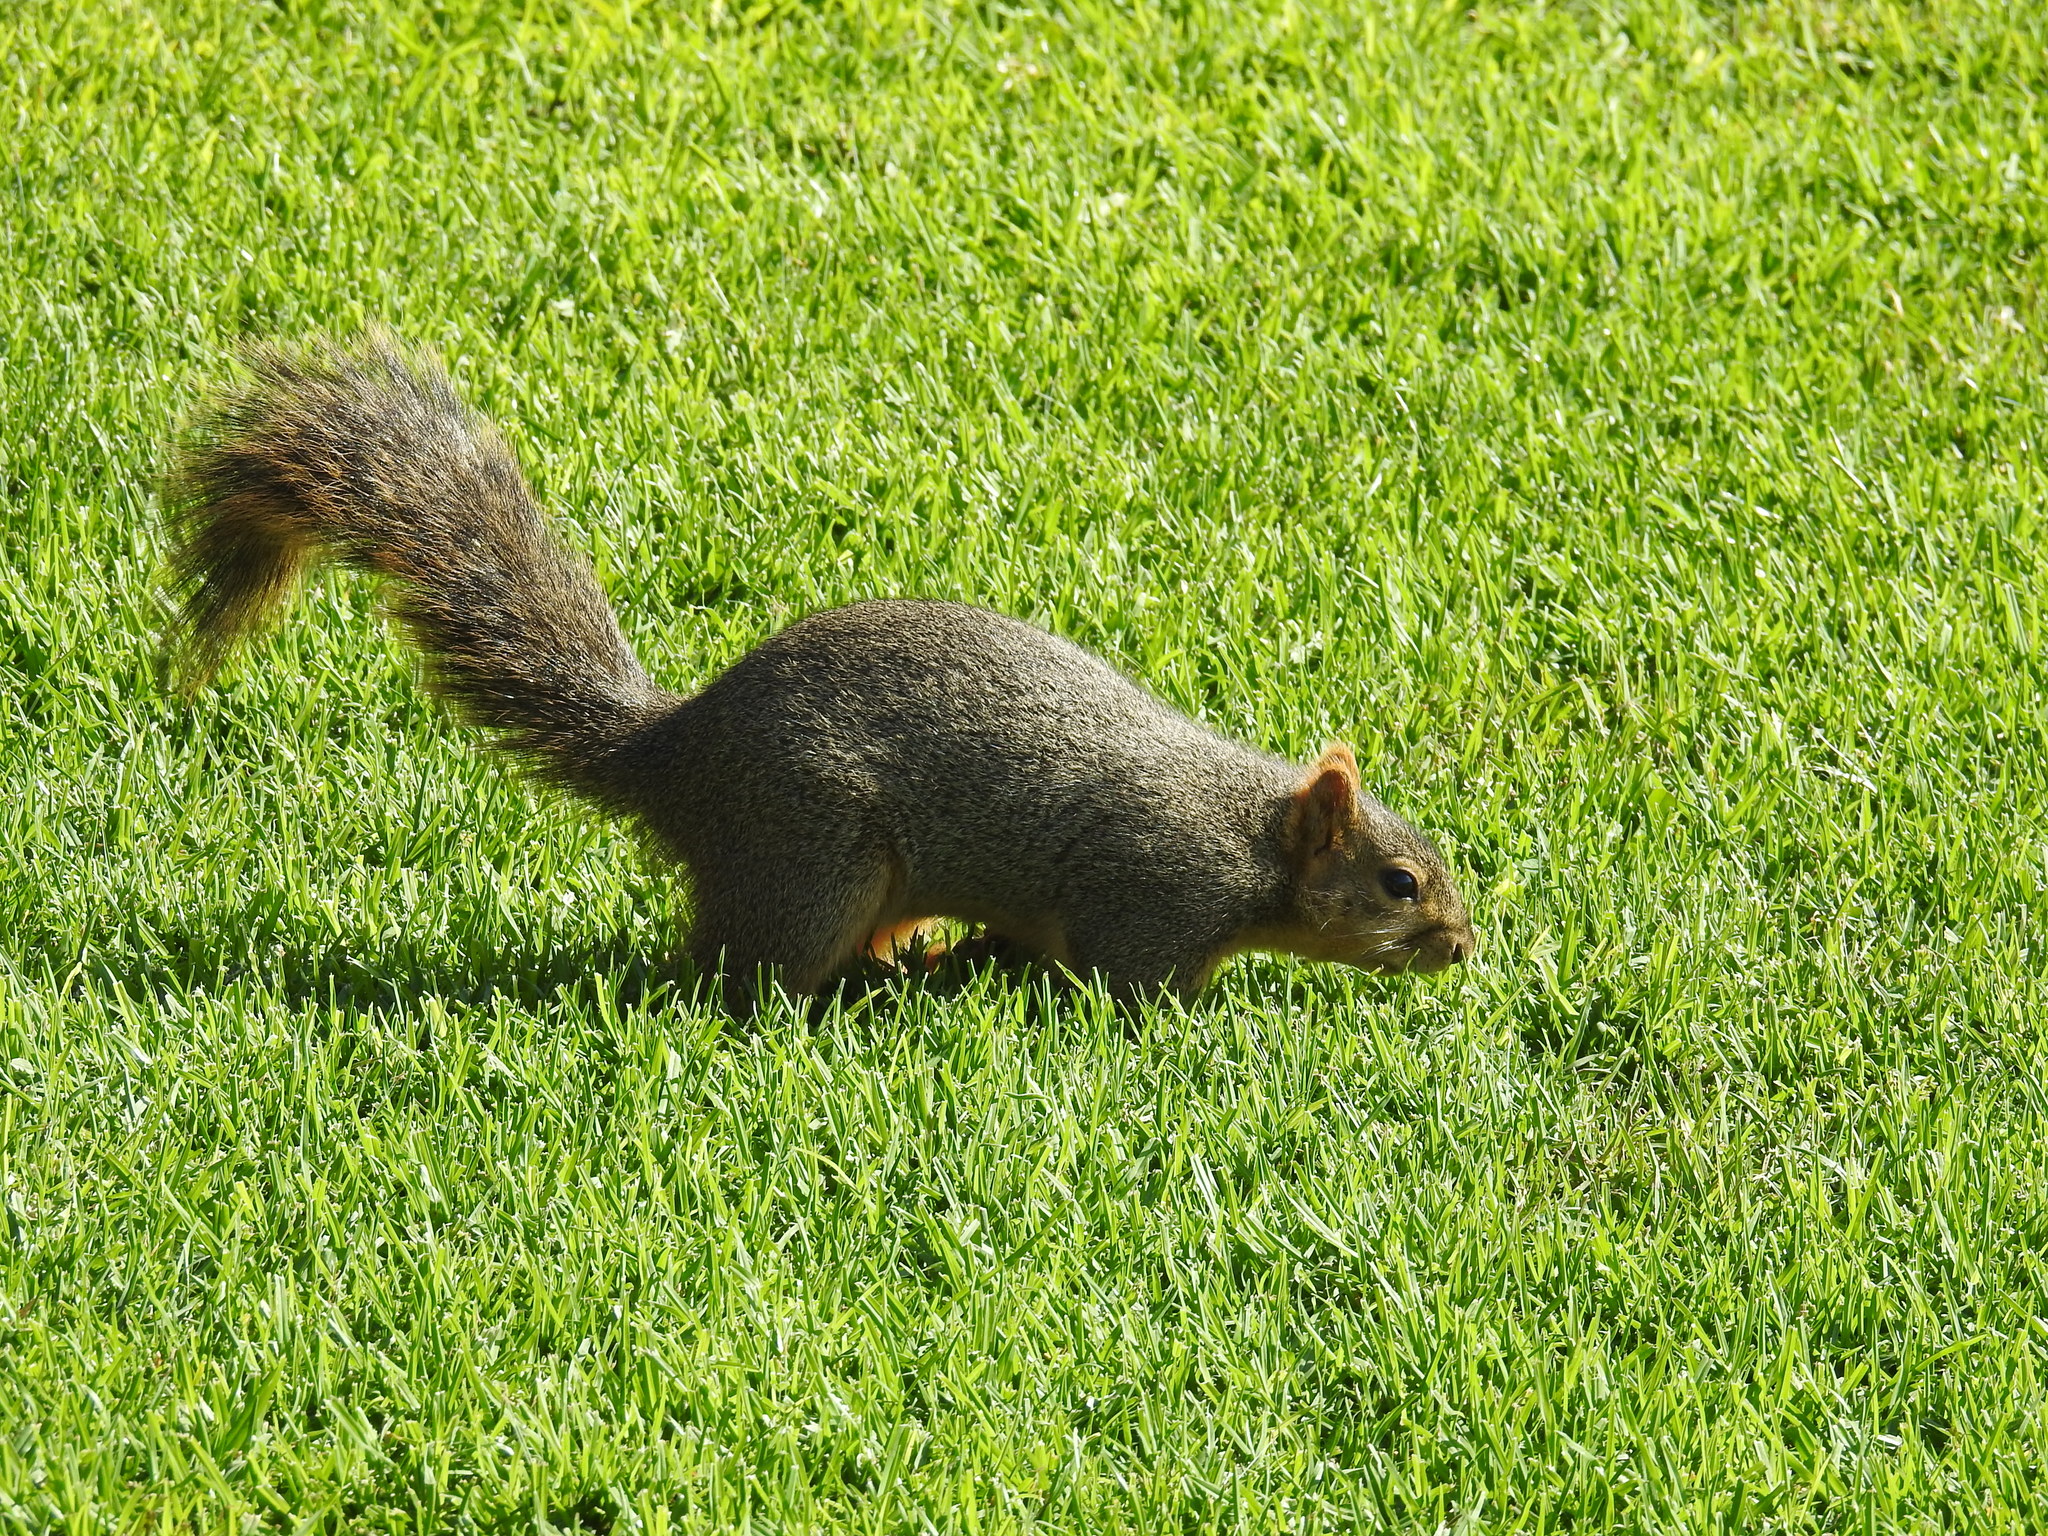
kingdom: Animalia
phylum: Chordata
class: Mammalia
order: Rodentia
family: Sciuridae
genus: Sciurus
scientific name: Sciurus niger
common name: Fox squirrel
